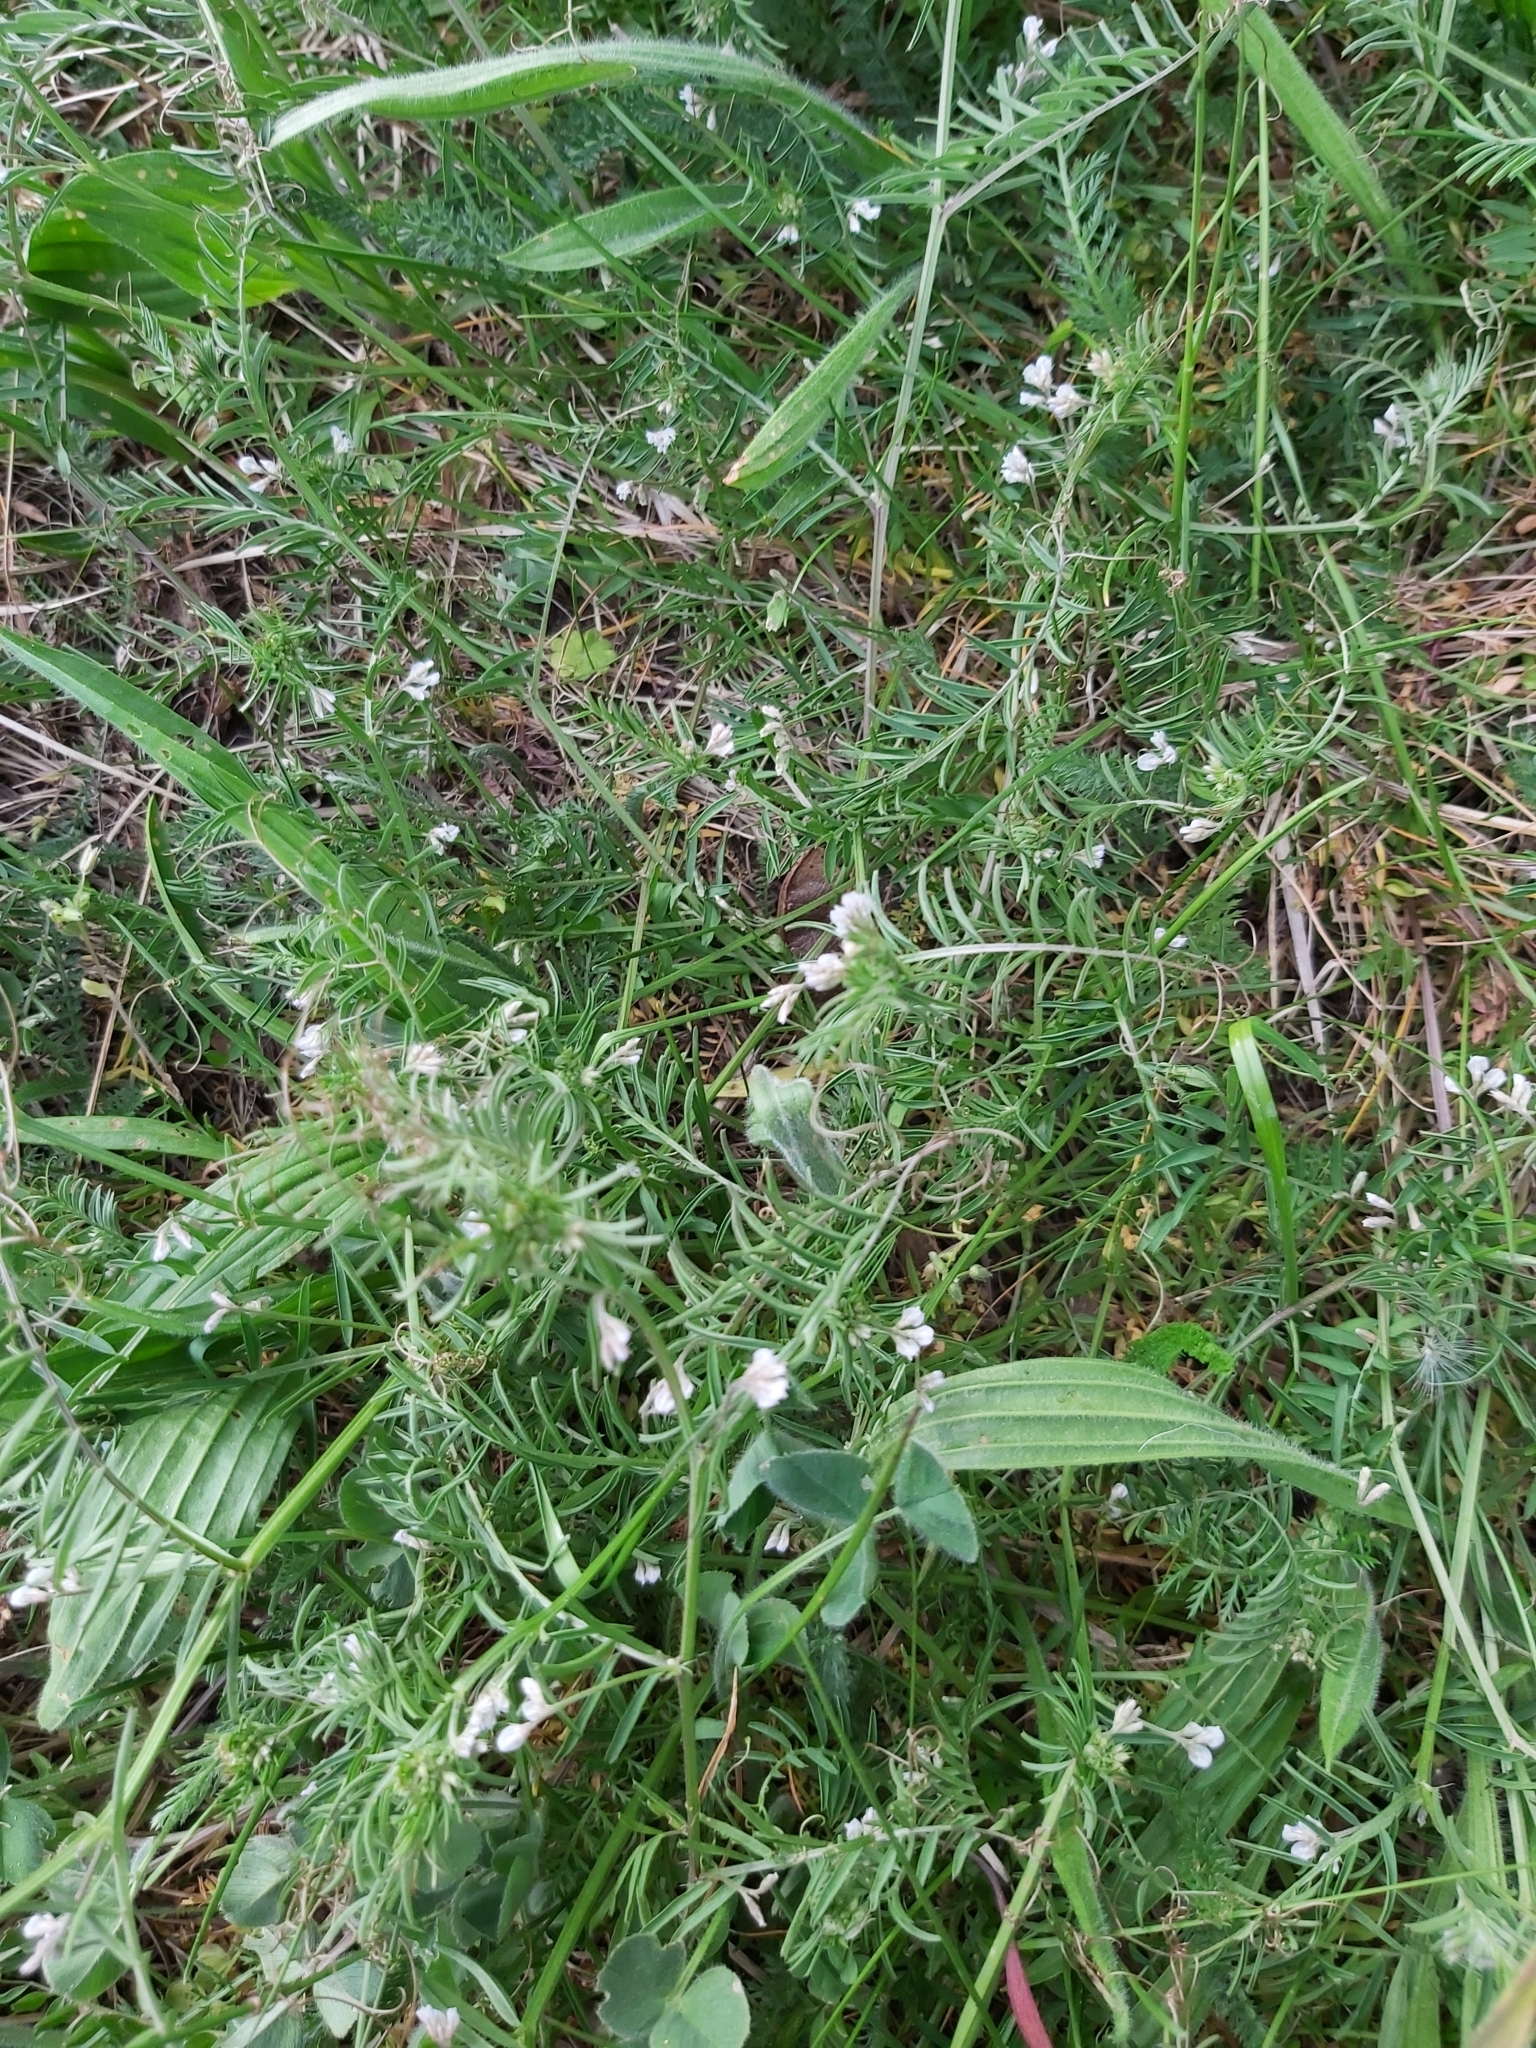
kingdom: Plantae
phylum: Tracheophyta
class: Magnoliopsida
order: Fabales
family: Fabaceae
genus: Vicia
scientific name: Vicia hirsuta
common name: Tiny vetch
